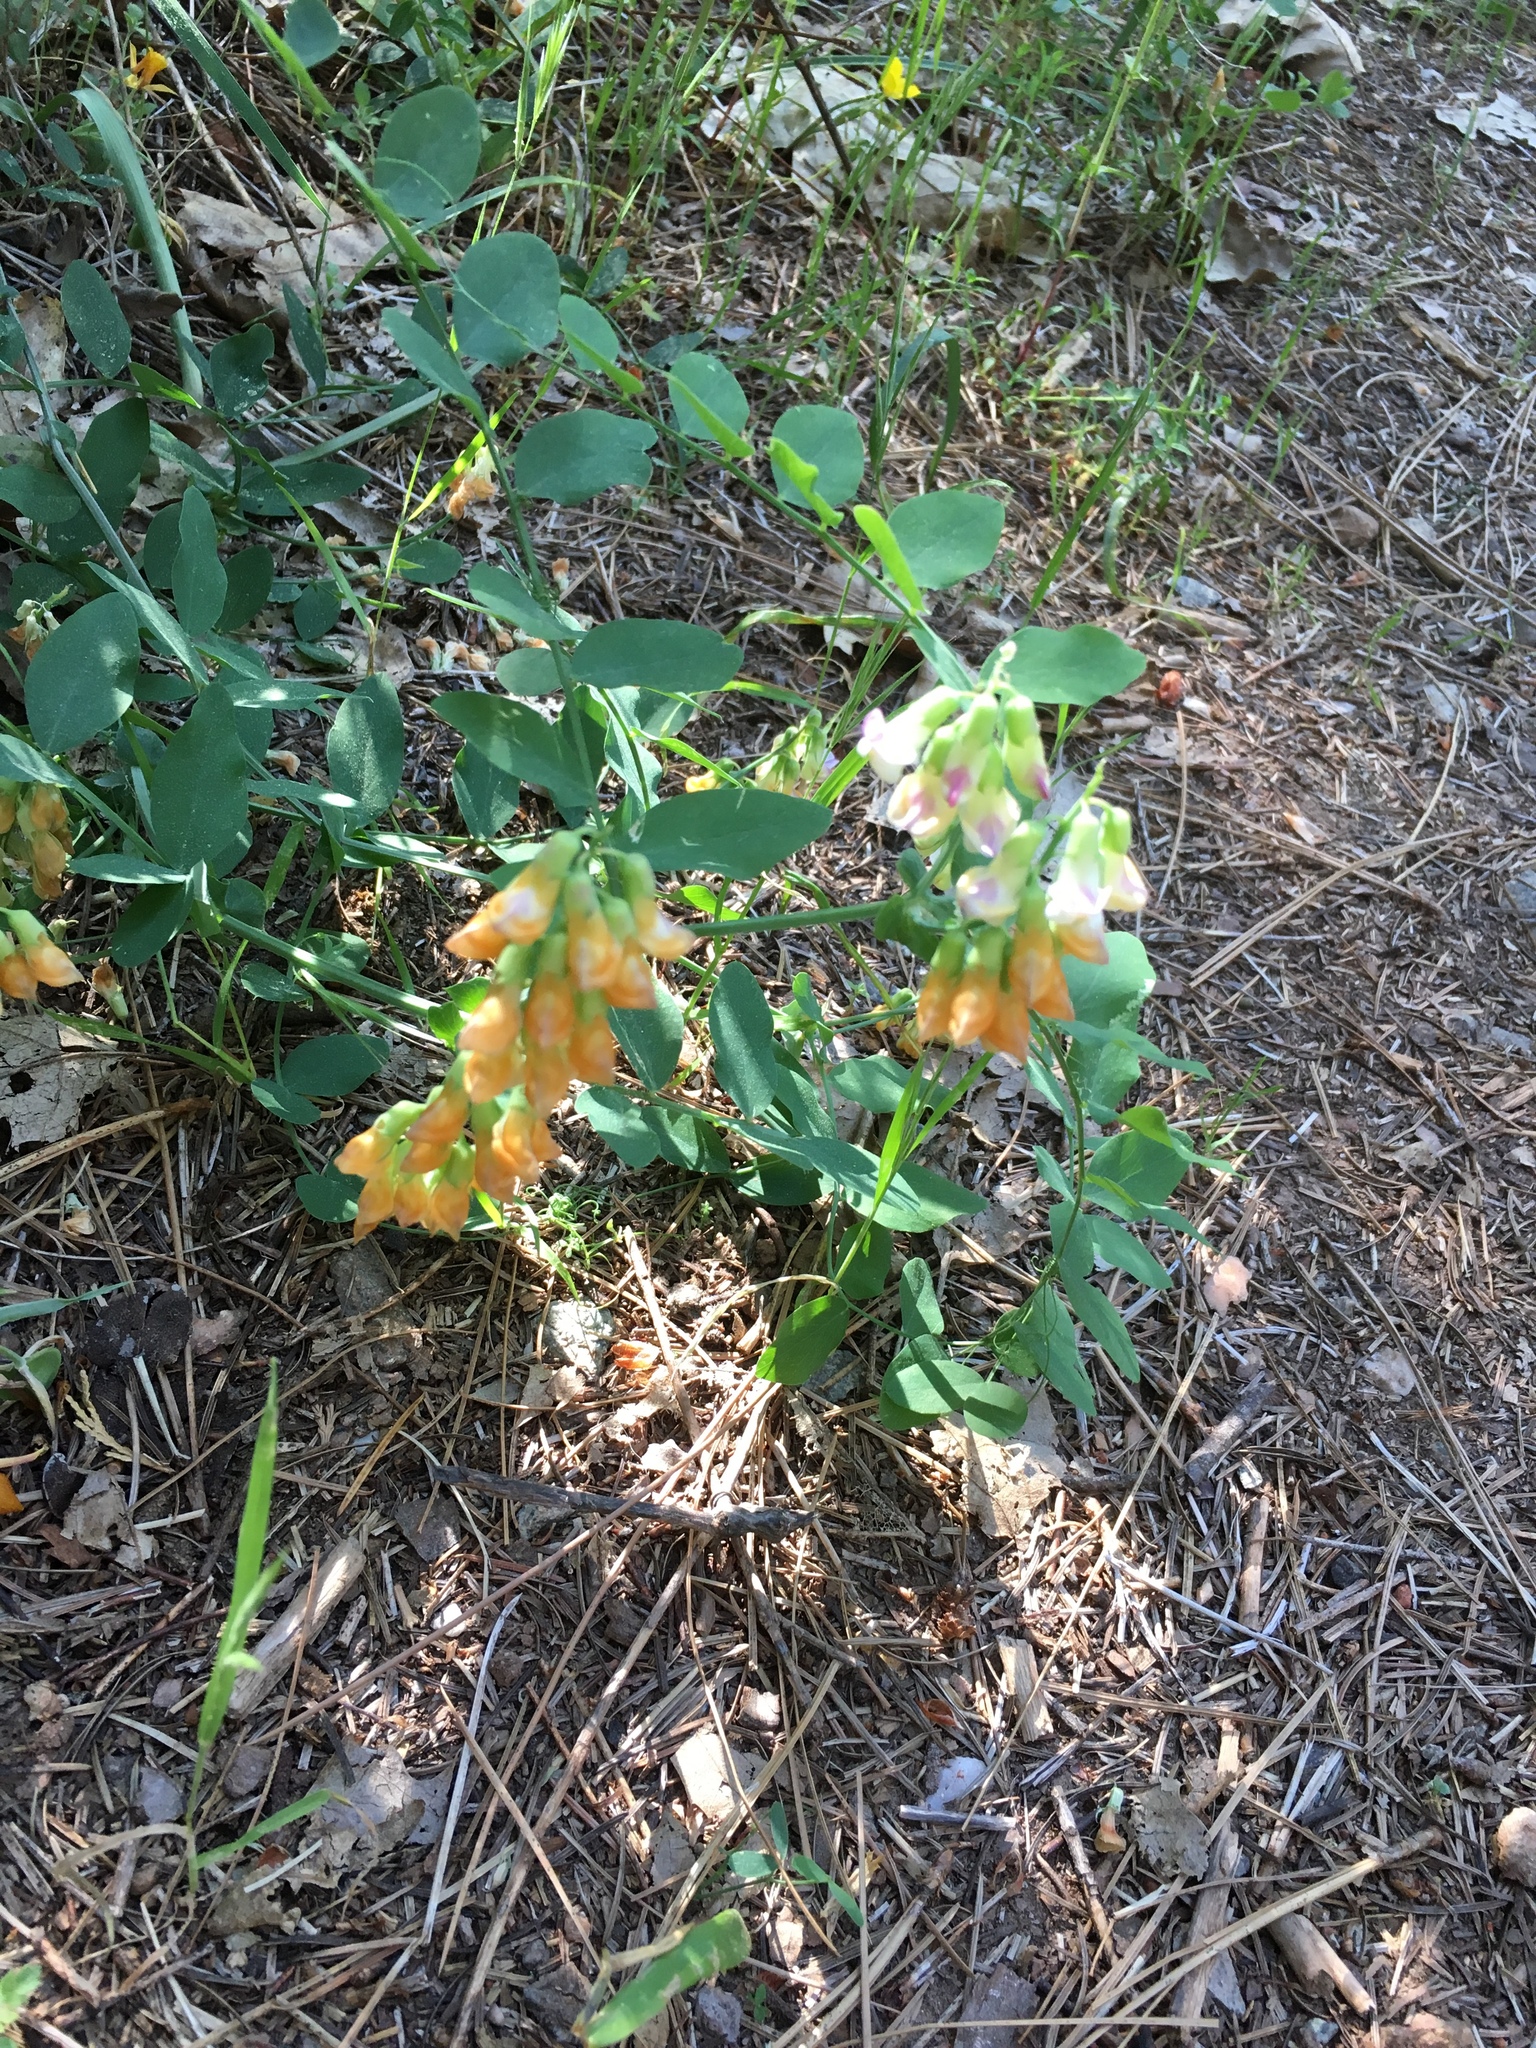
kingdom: Plantae
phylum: Tracheophyta
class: Magnoliopsida
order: Fabales
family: Fabaceae
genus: Lathyrus
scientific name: Lathyrus sulphureus
